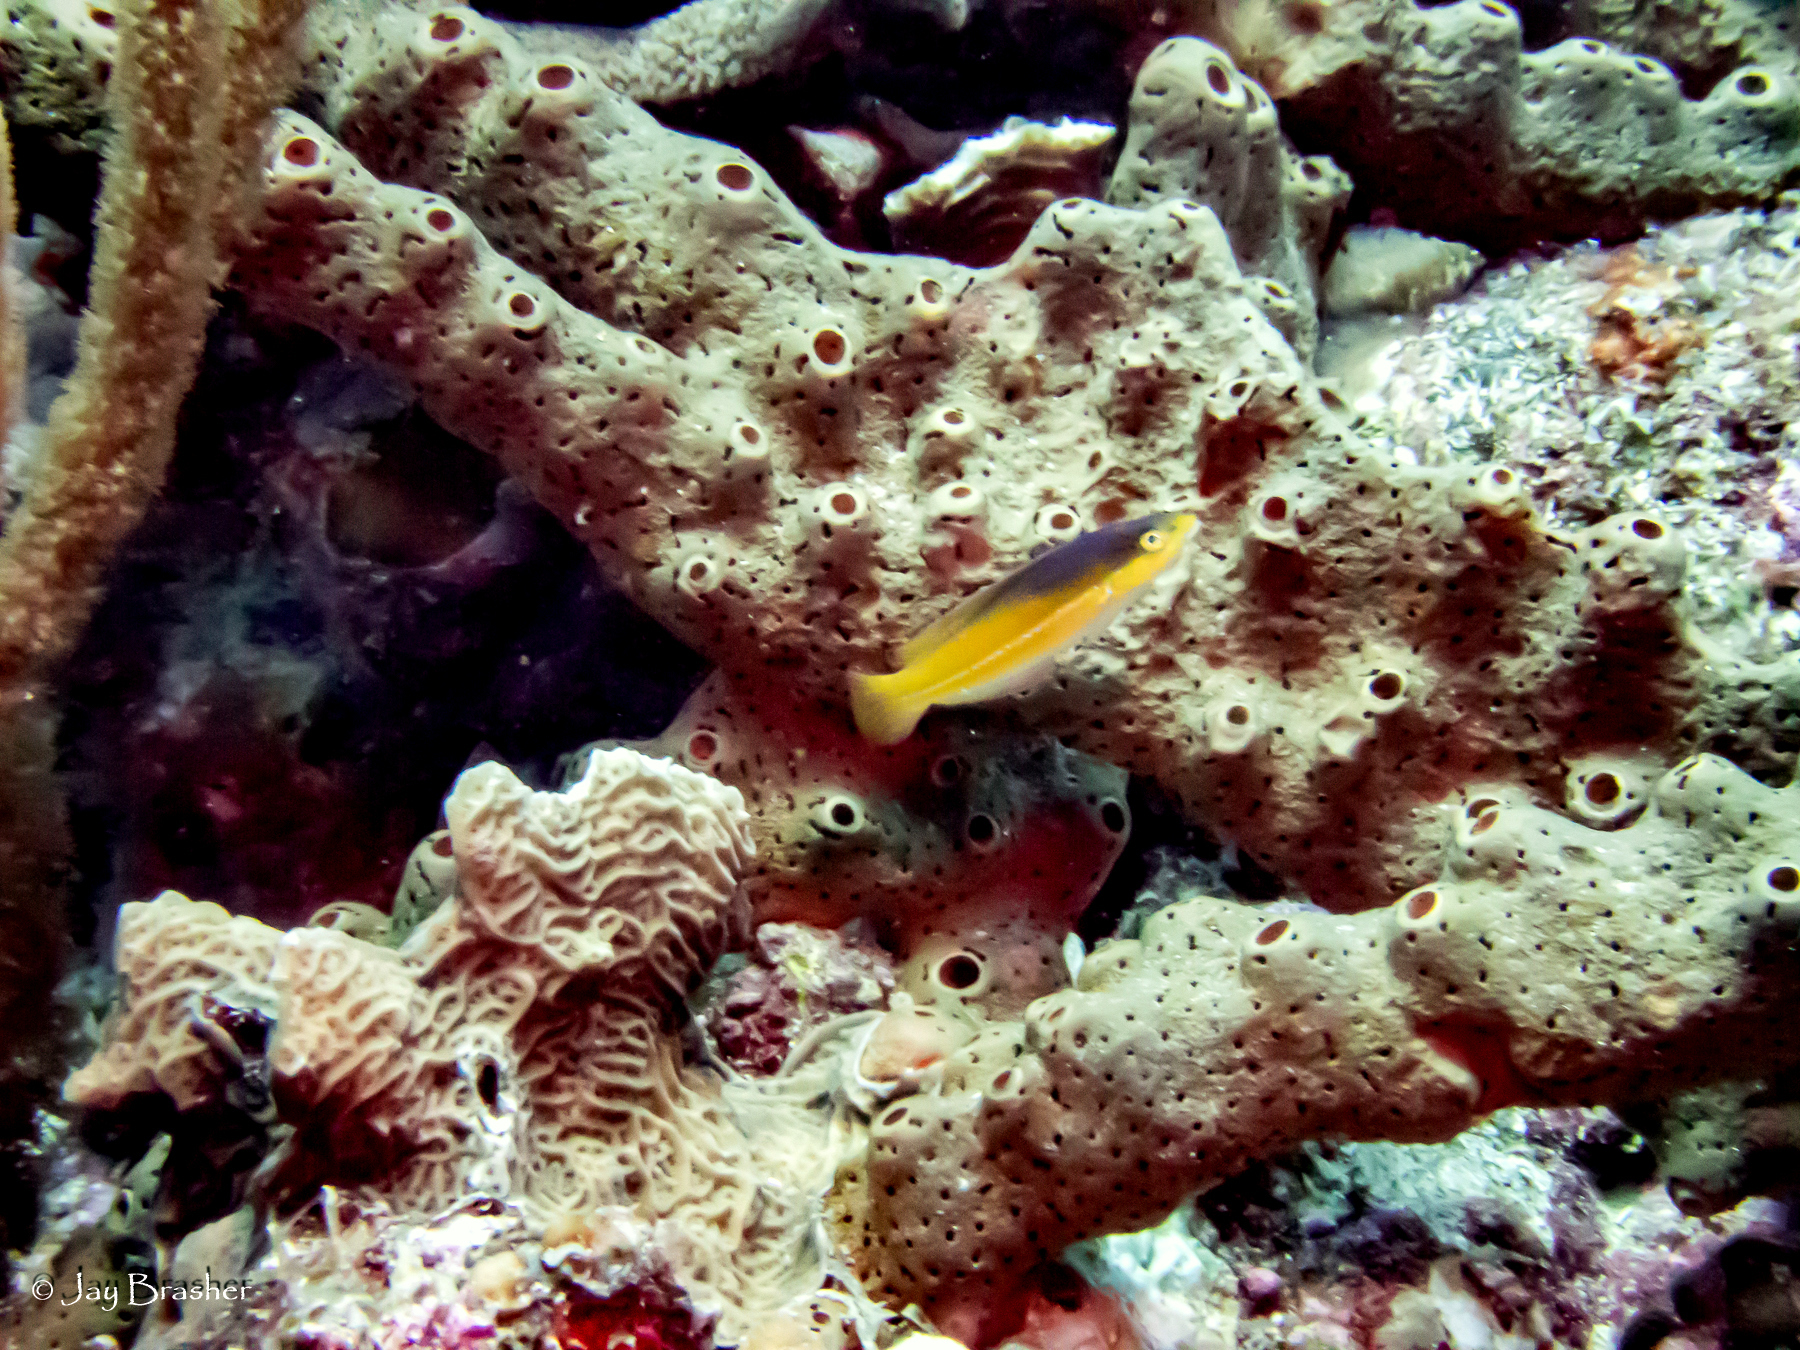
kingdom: Animalia
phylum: Chordata
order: Perciformes
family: Labridae
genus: Halichoeres
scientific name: Halichoeres garnoti
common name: Yellowhead wrasse
